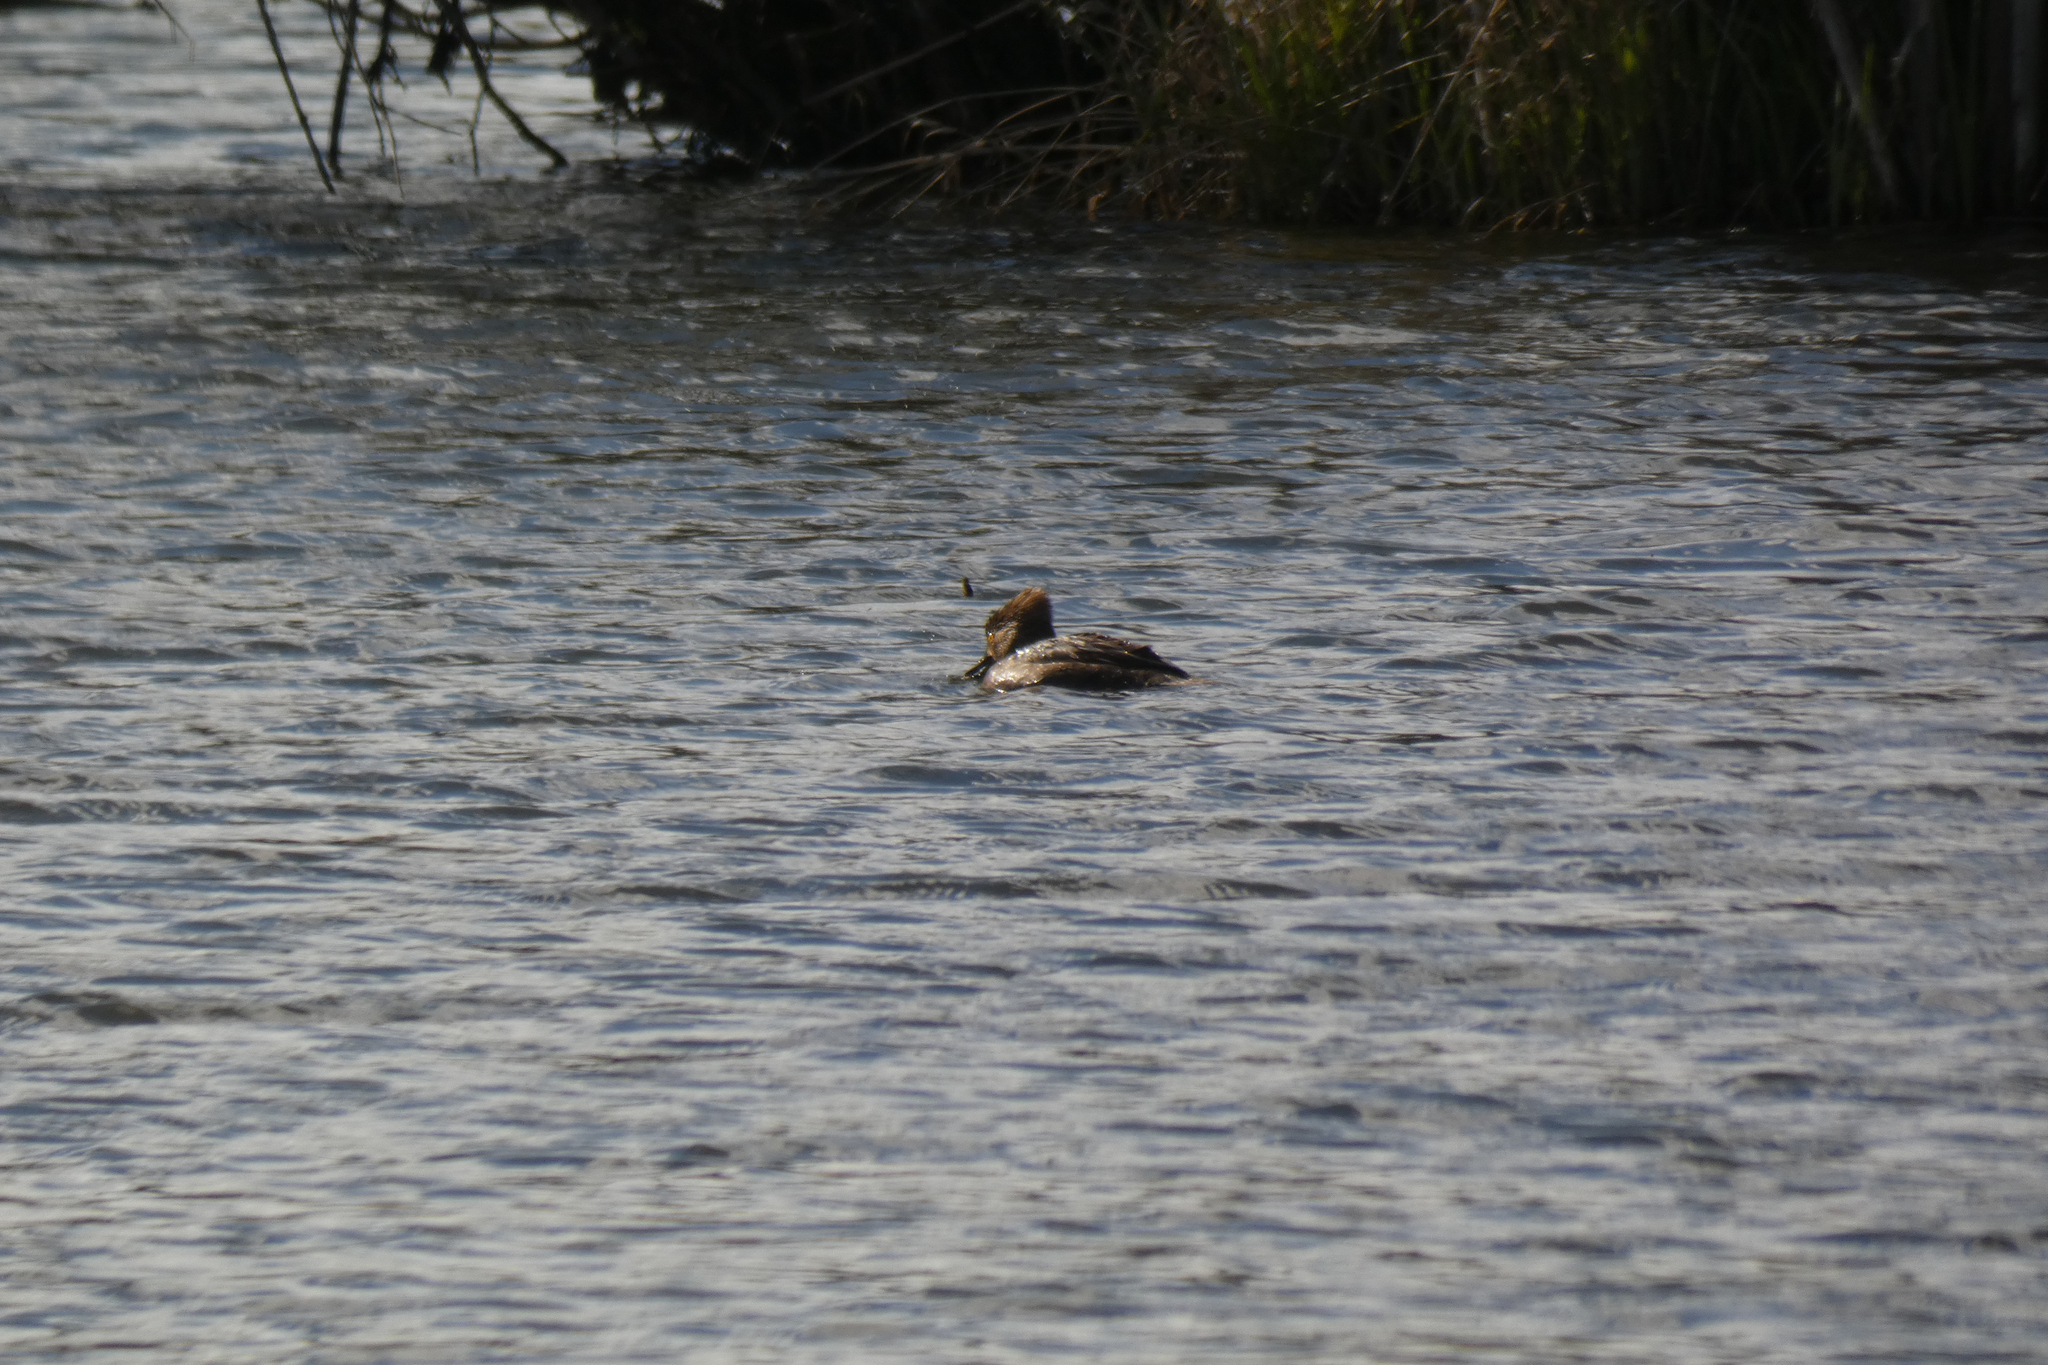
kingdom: Animalia
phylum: Chordata
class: Aves
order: Anseriformes
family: Anatidae
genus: Lophodytes
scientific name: Lophodytes cucullatus
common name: Hooded merganser
